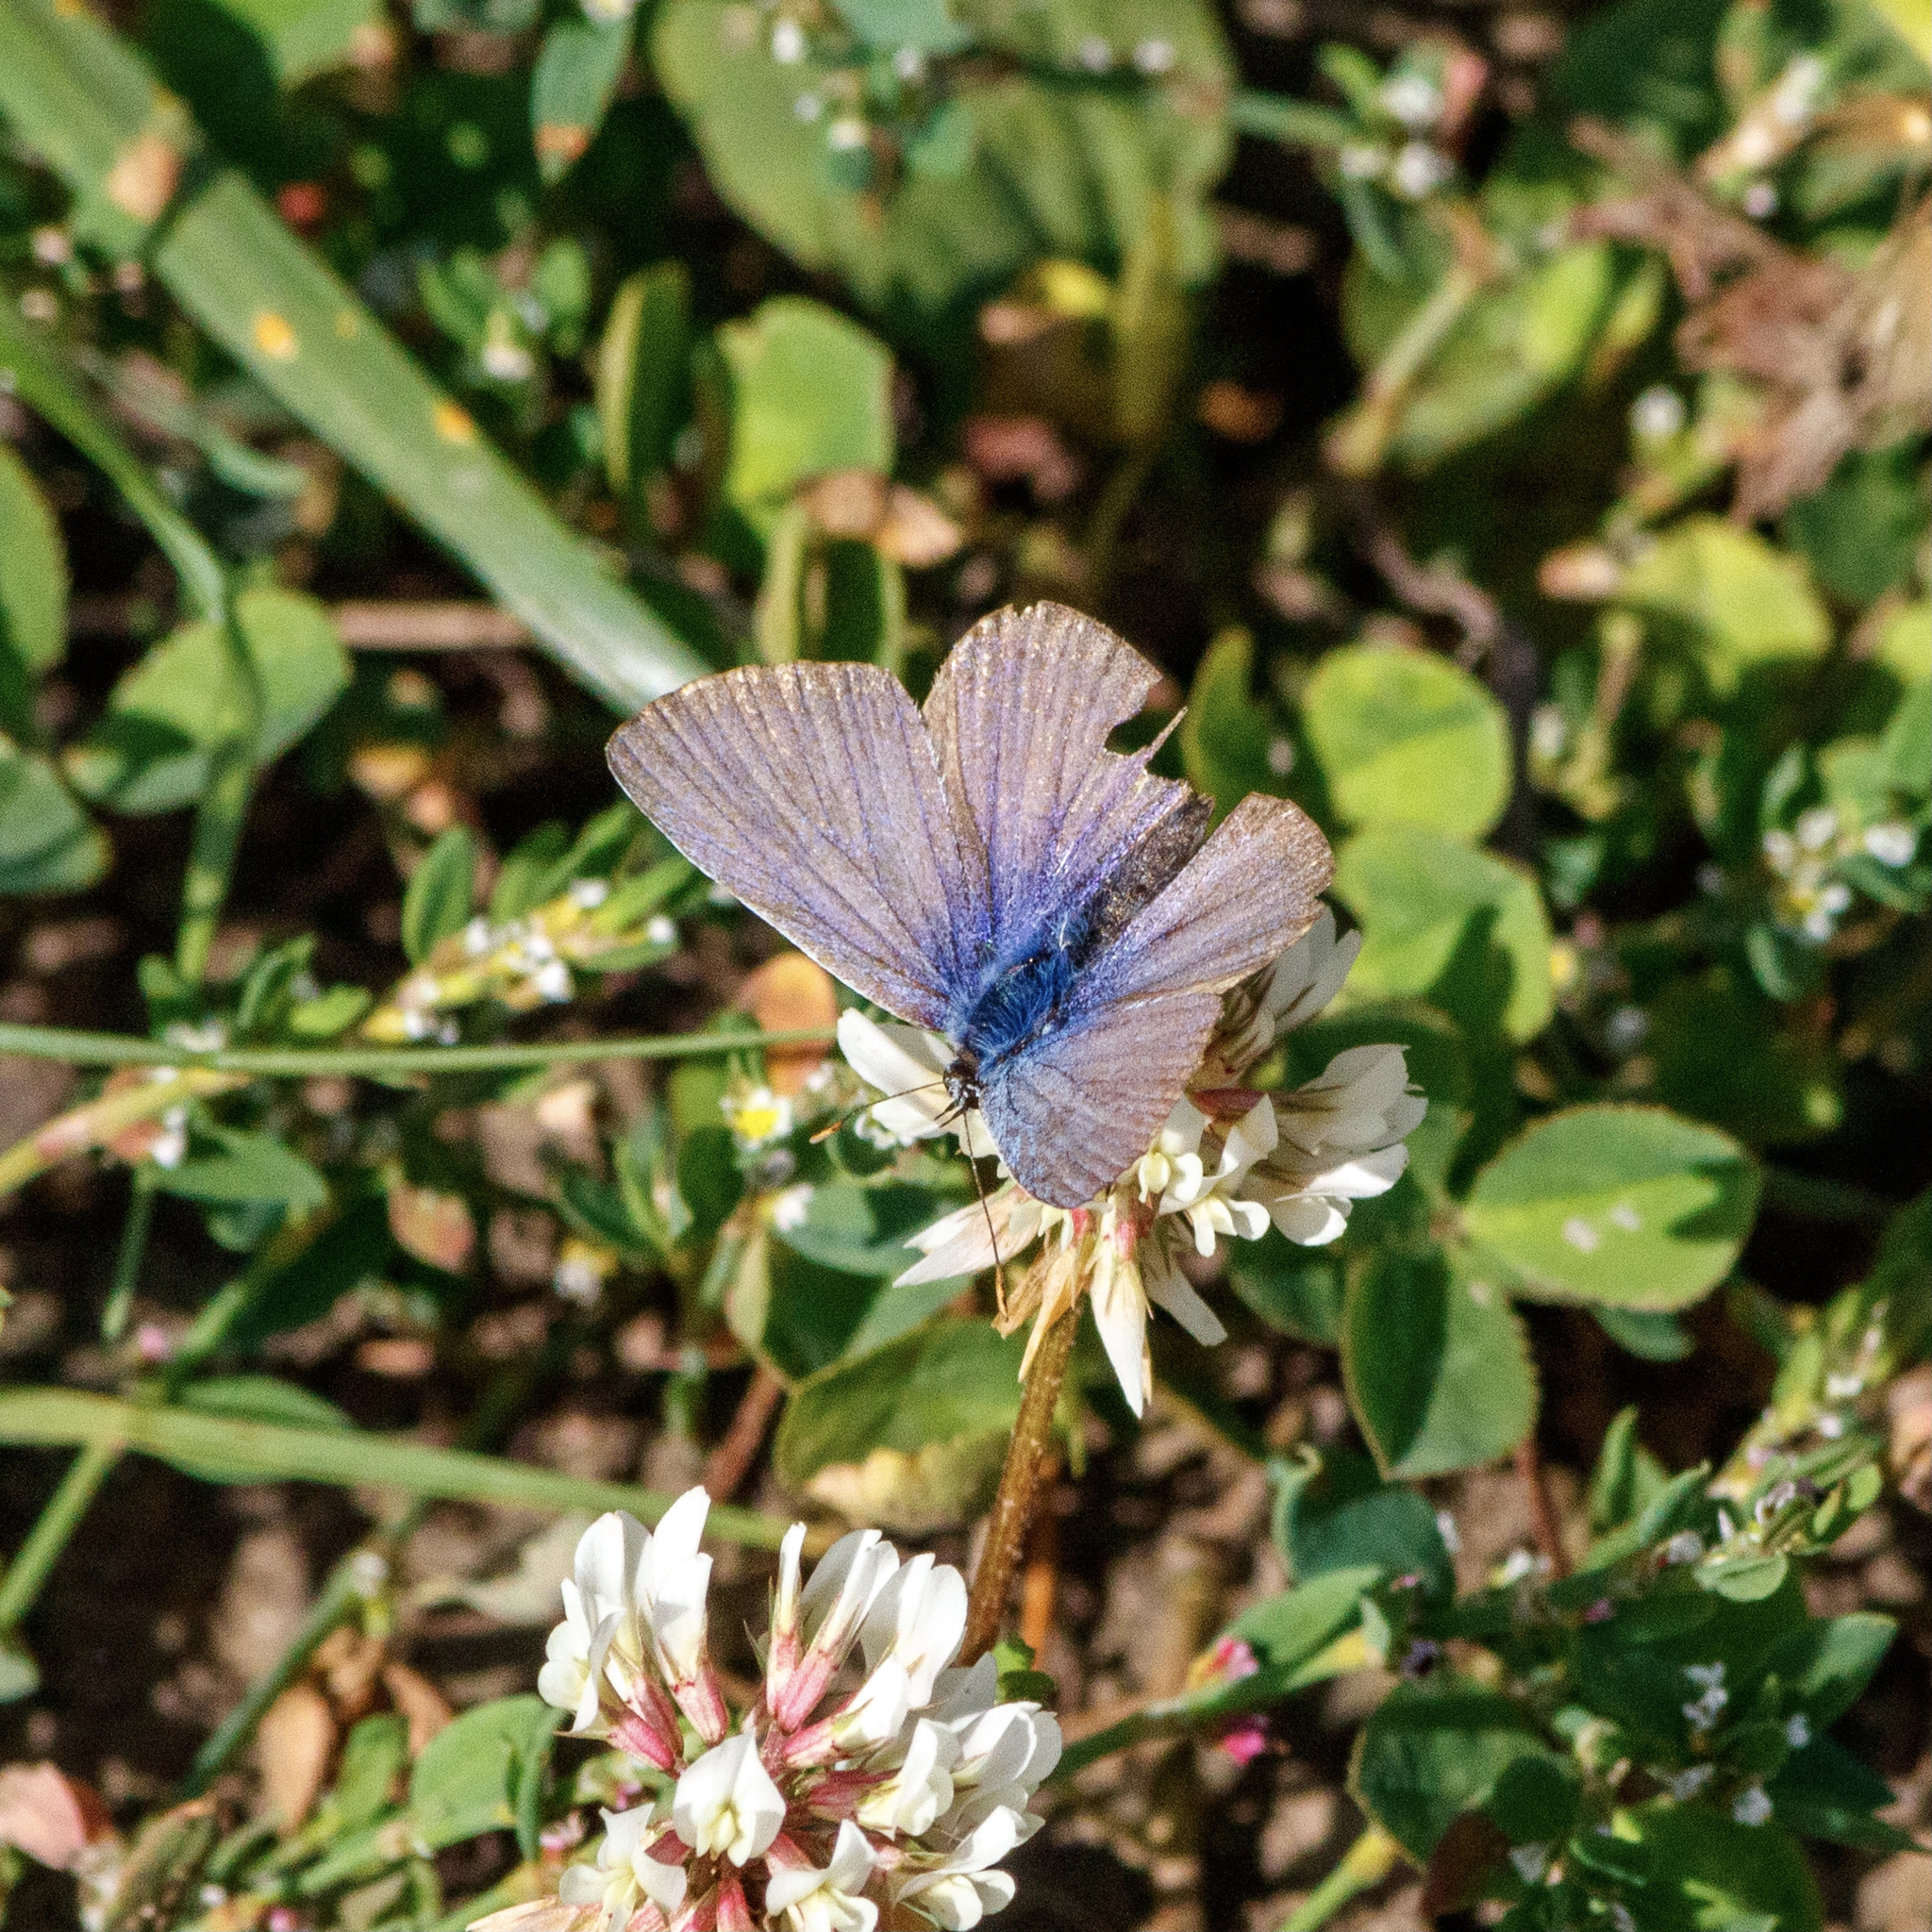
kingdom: Animalia
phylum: Arthropoda
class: Insecta
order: Lepidoptera
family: Lycaenidae
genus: Polyommatus
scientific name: Polyommatus icarus
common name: Common blue
